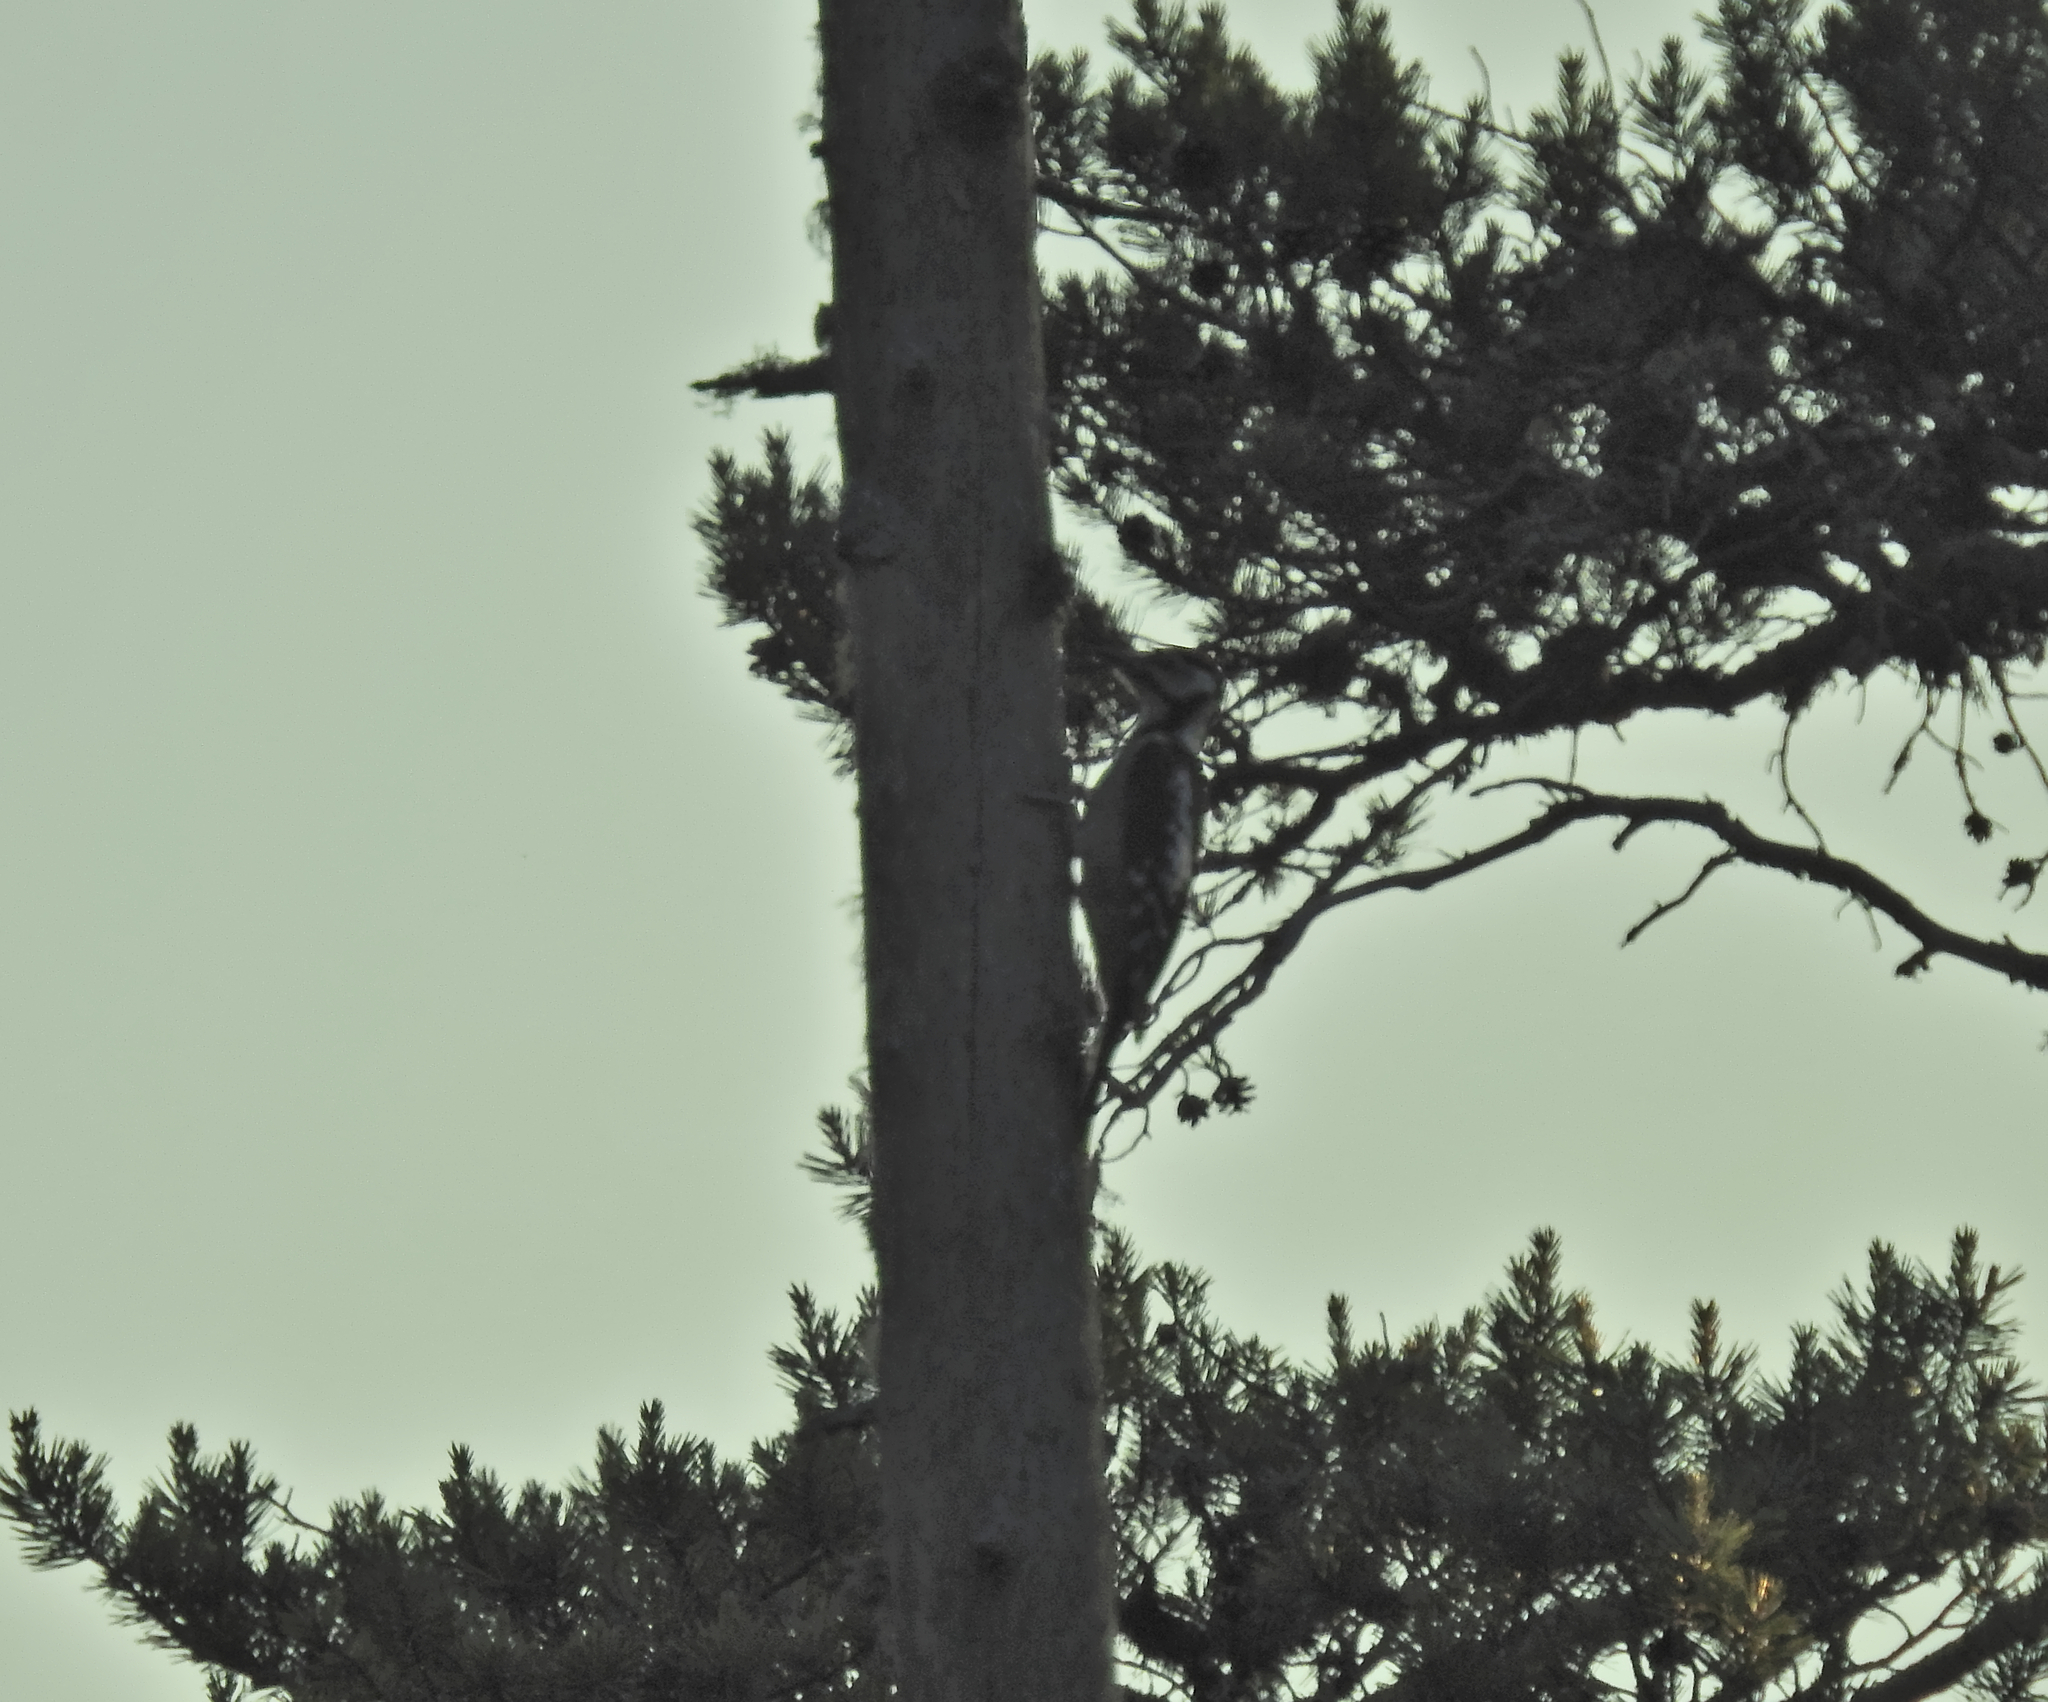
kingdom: Animalia
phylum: Chordata
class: Aves
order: Piciformes
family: Picidae
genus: Dendrocopos
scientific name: Dendrocopos major
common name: Great spotted woodpecker
